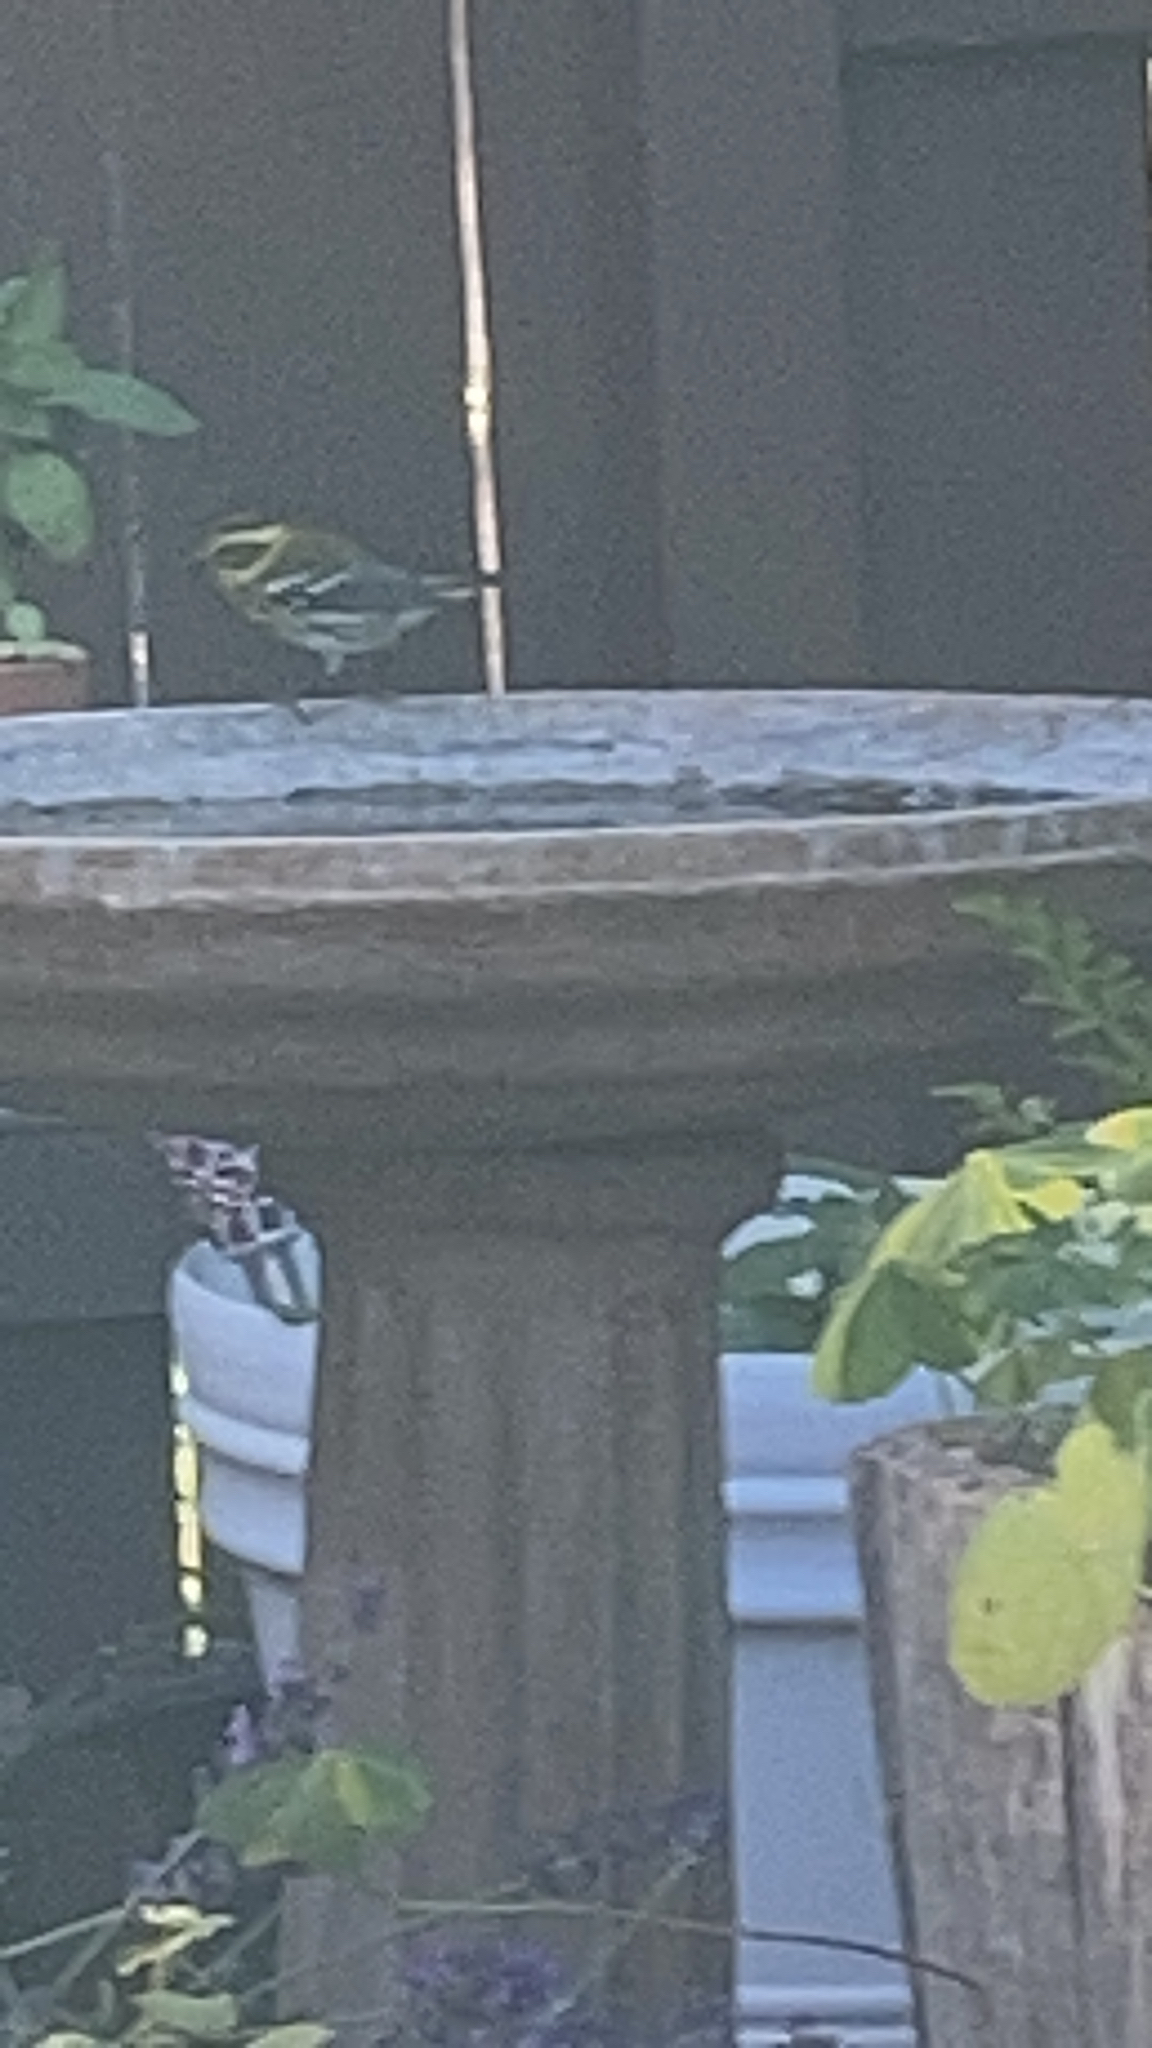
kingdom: Animalia
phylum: Chordata
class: Aves
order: Passeriformes
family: Parulidae
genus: Setophaga
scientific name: Setophaga townsendi
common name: Townsend's warbler
